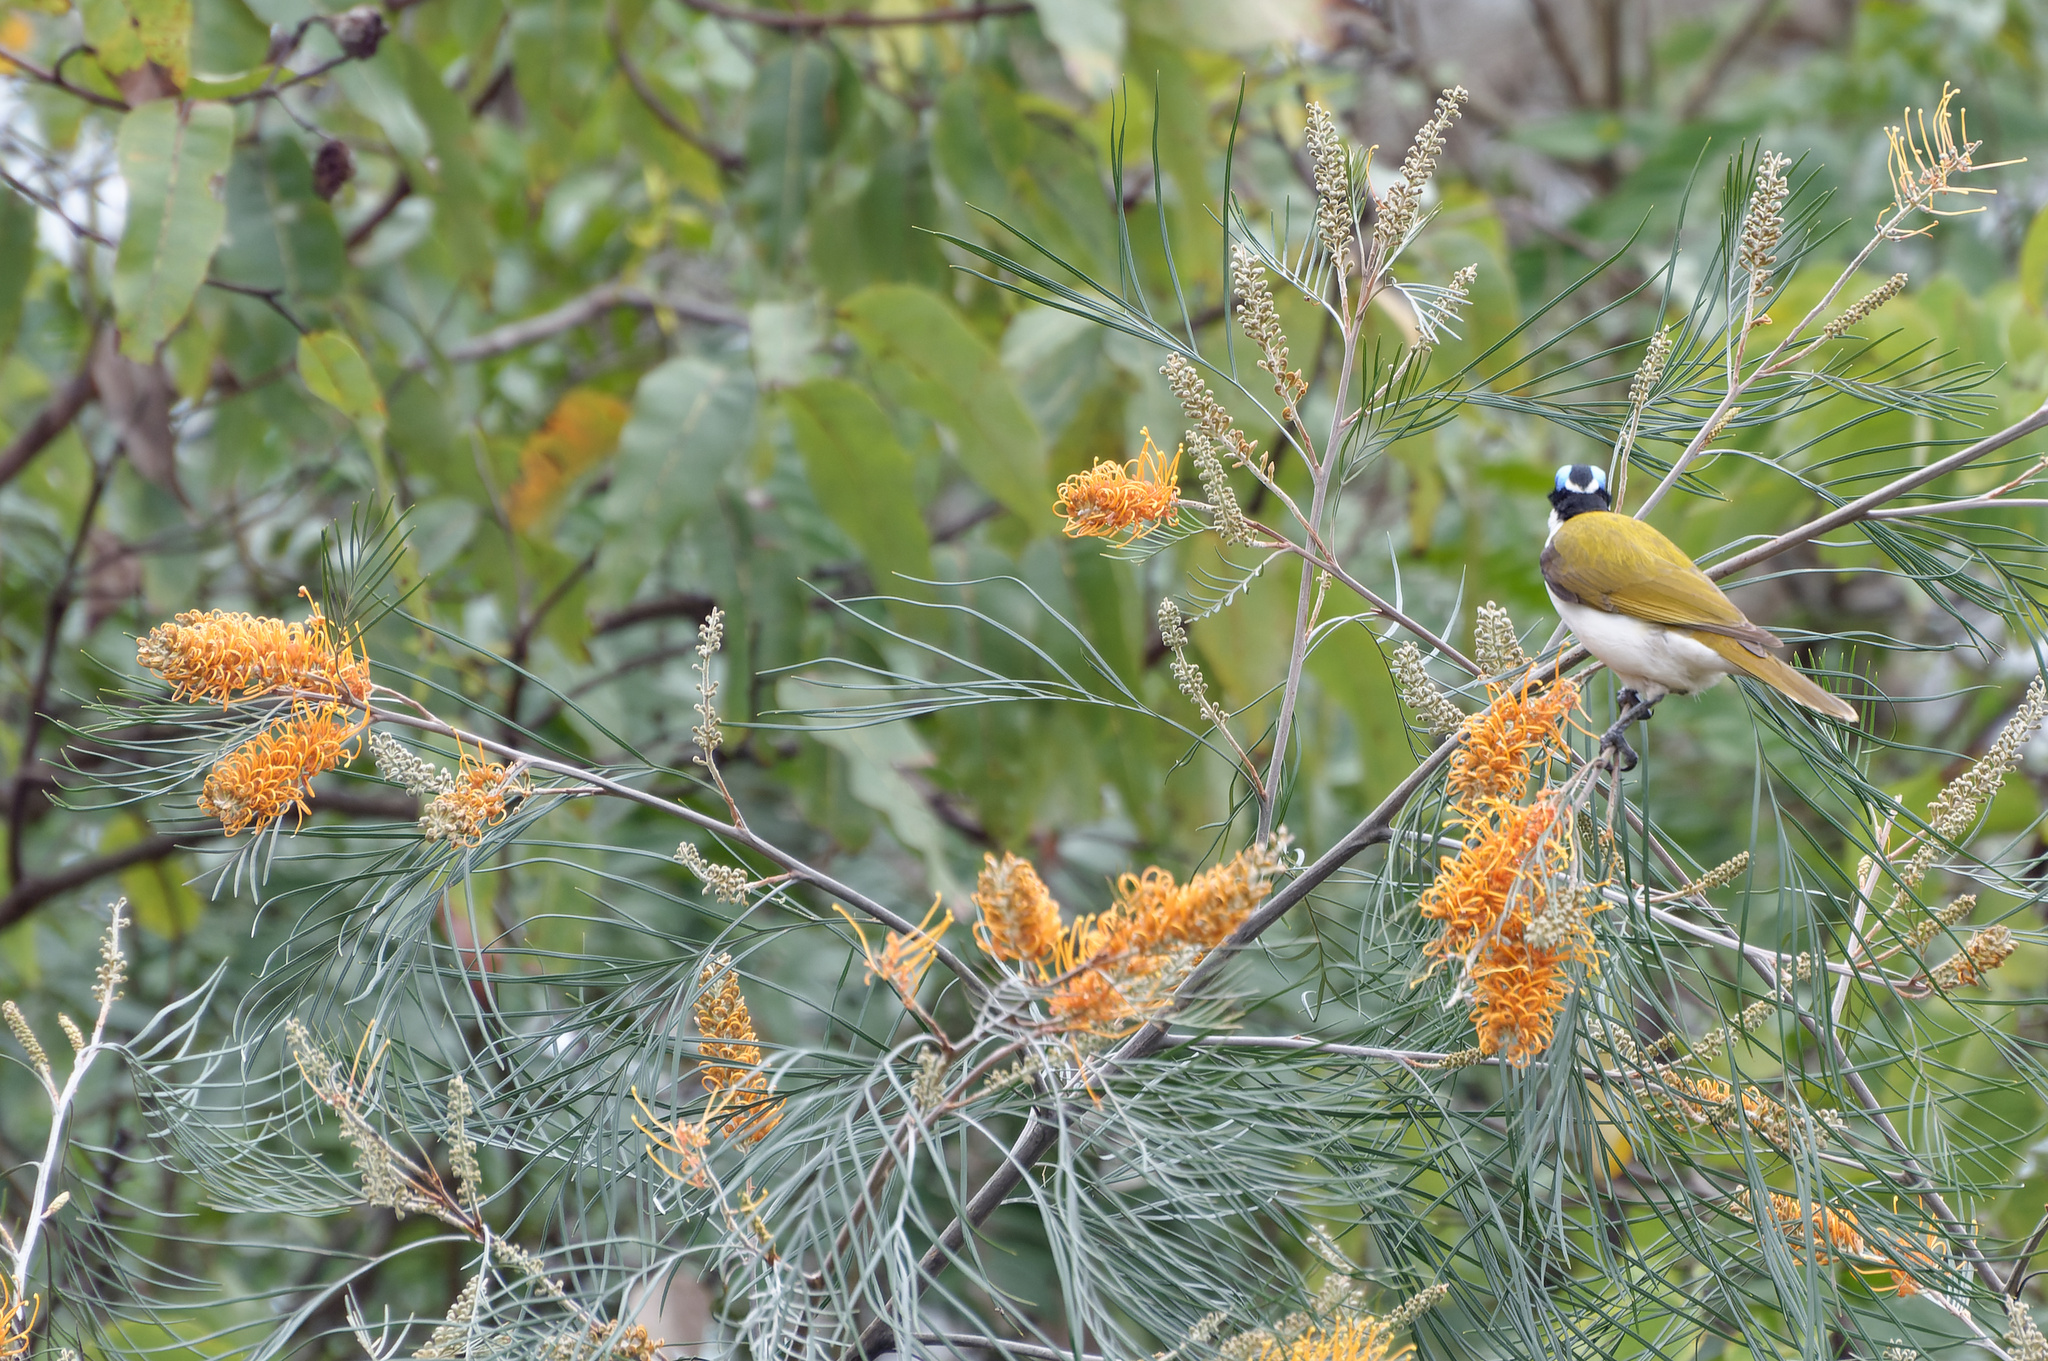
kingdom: Plantae
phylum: Tracheophyta
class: Magnoliopsida
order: Proteales
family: Proteaceae
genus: Grevillea
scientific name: Grevillea pteridifolia
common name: Golden grevillea
